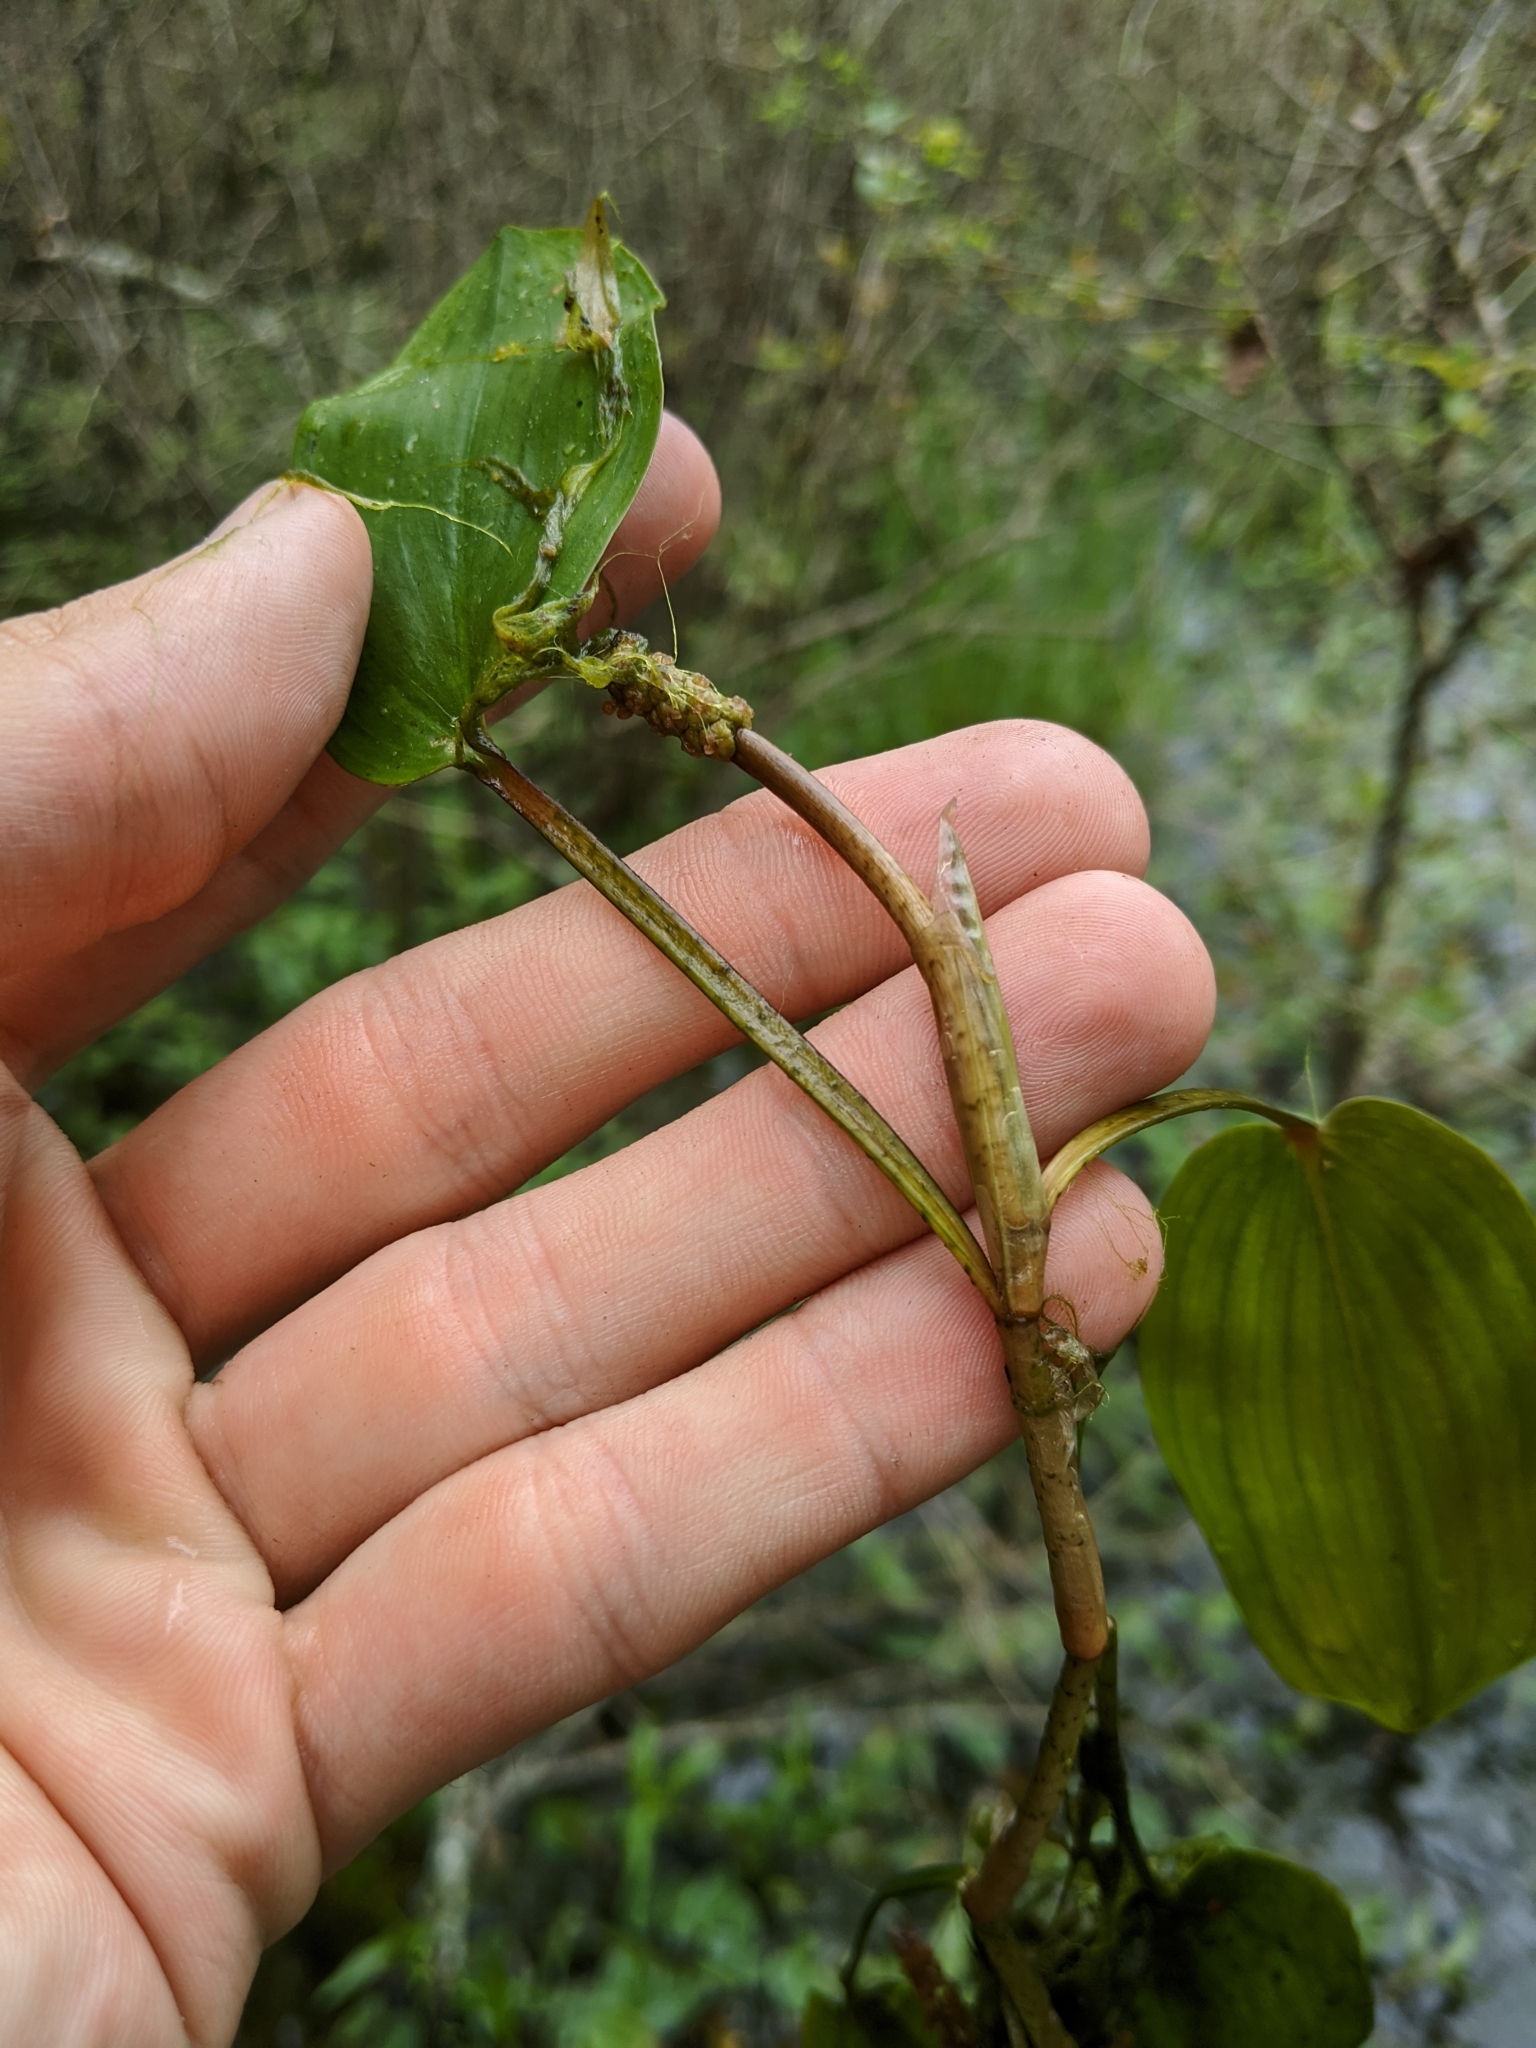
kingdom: Plantae
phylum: Tracheophyta
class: Liliopsida
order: Alismatales
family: Potamogetonaceae
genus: Potamogeton
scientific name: Potamogeton pulcher
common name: Heart-leaved pondweed
